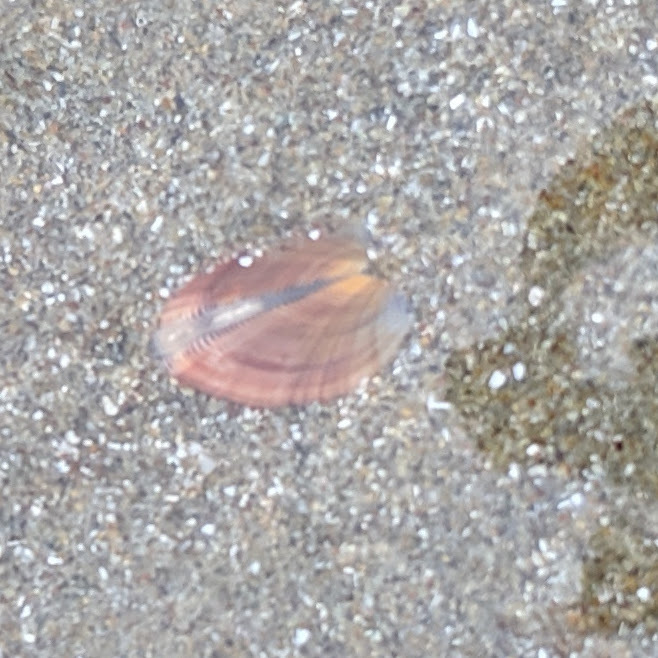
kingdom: Animalia
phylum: Mollusca
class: Bivalvia
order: Cardiida
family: Donacidae
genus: Donax
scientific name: Donax gouldii
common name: Gould beanclam
